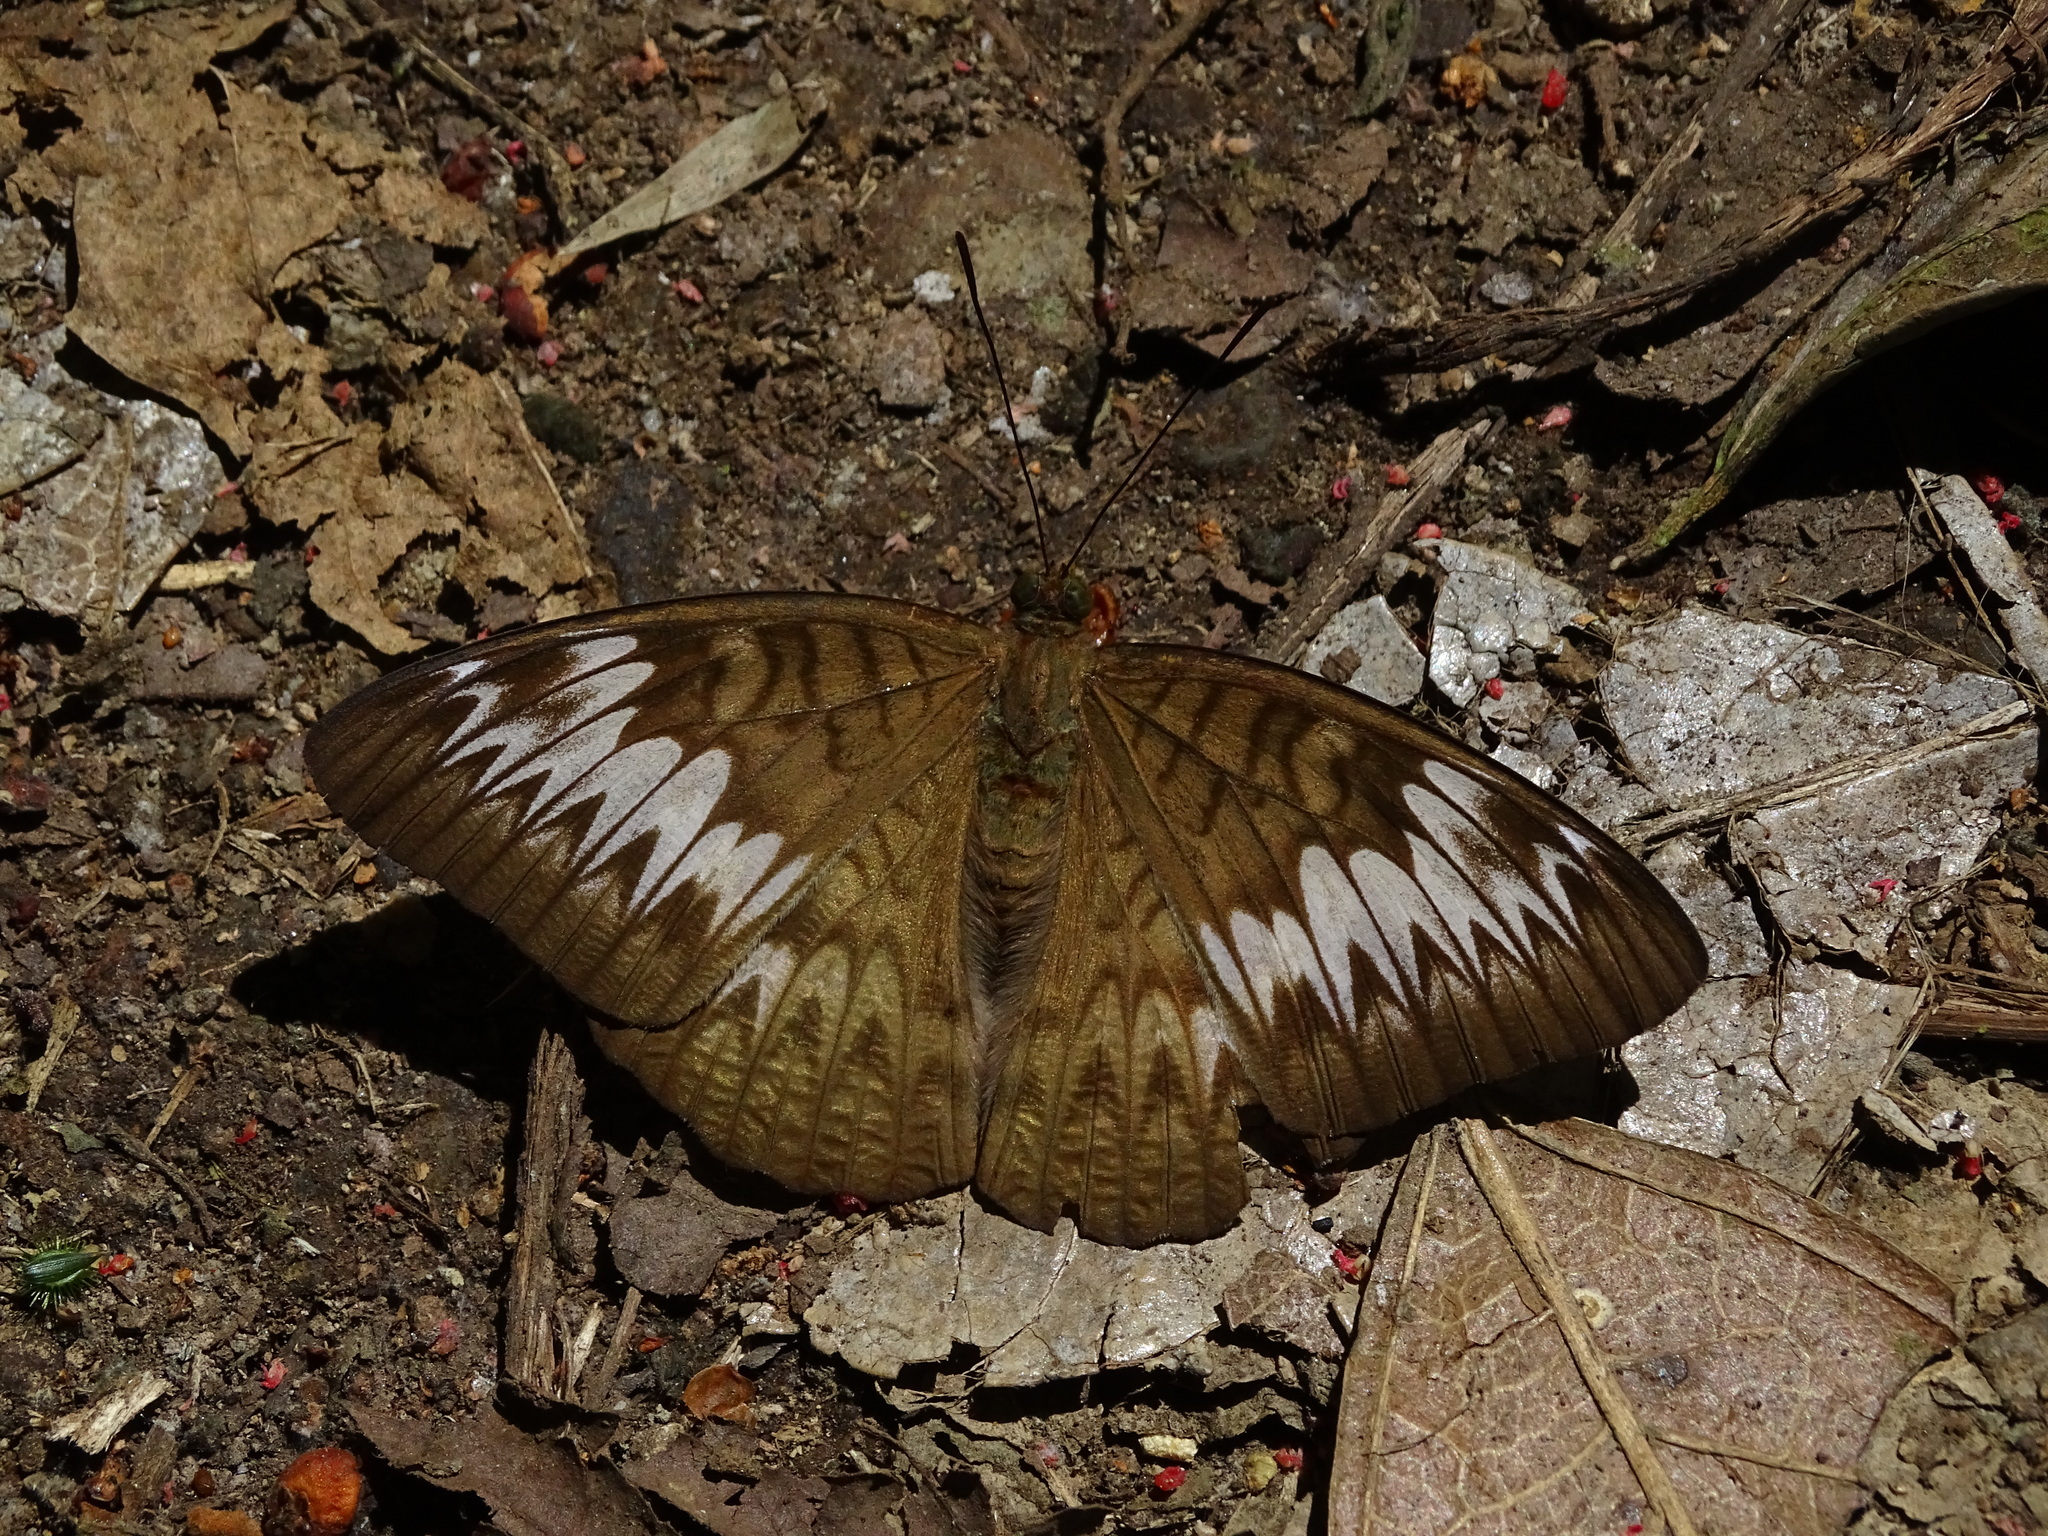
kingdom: Animalia
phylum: Arthropoda
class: Insecta
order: Lepidoptera
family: Nymphalidae
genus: Tanaecia
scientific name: Tanaecia palguna
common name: Long-lined viscount
